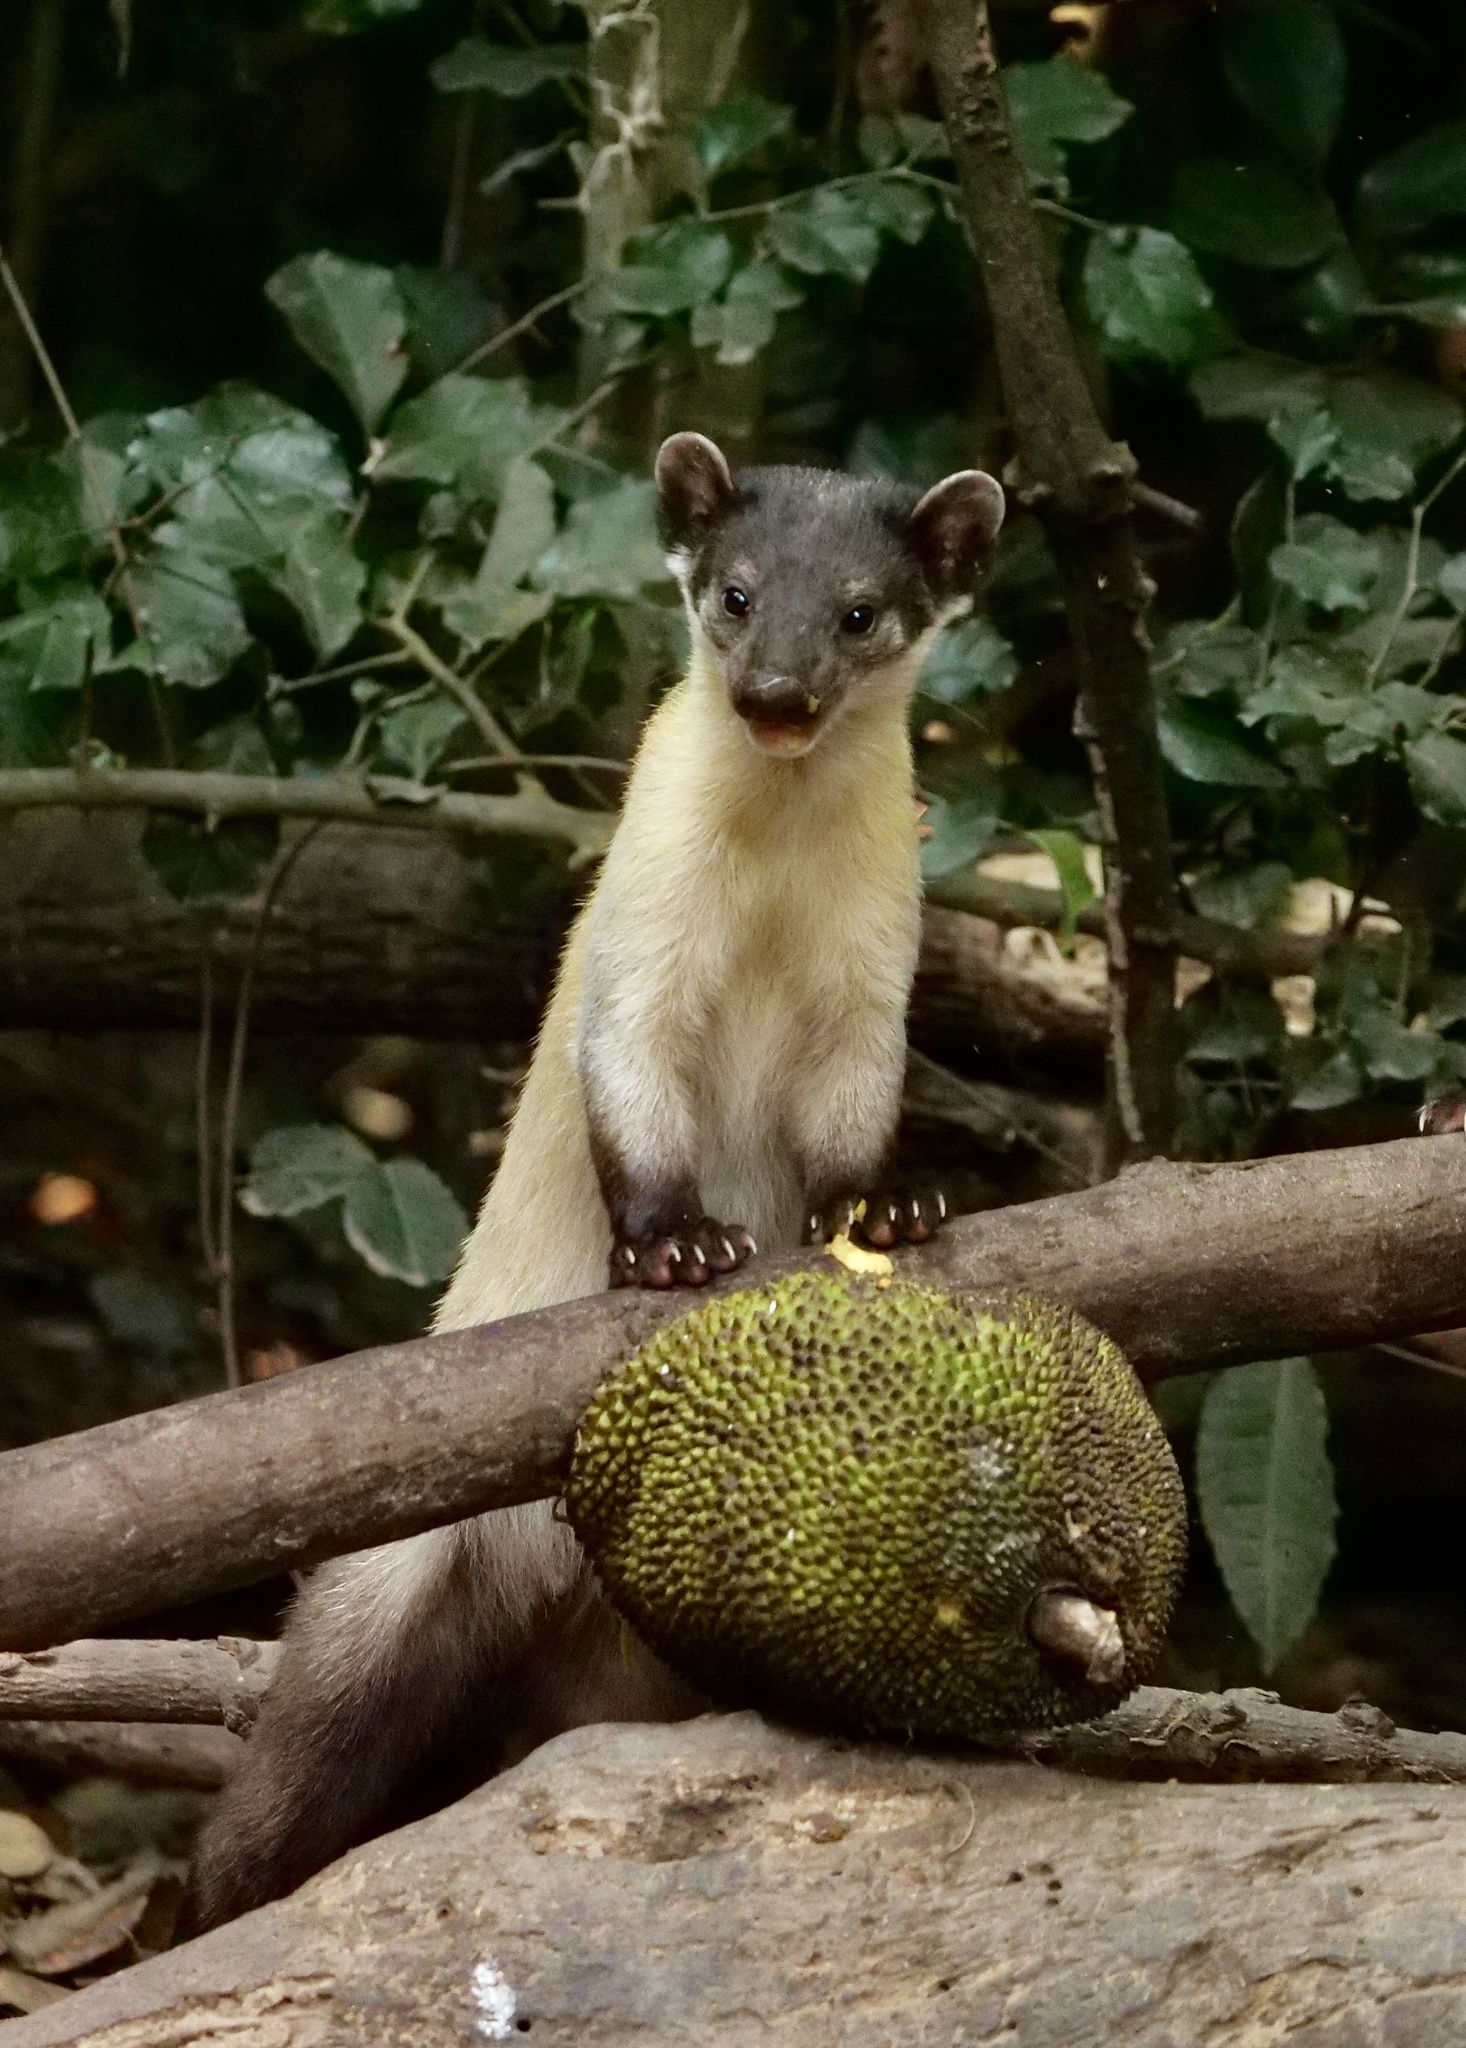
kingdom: Animalia
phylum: Chordata
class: Mammalia
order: Carnivora
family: Mustelidae
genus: Martes
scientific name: Martes flavigula
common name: Yellow-throated marten
